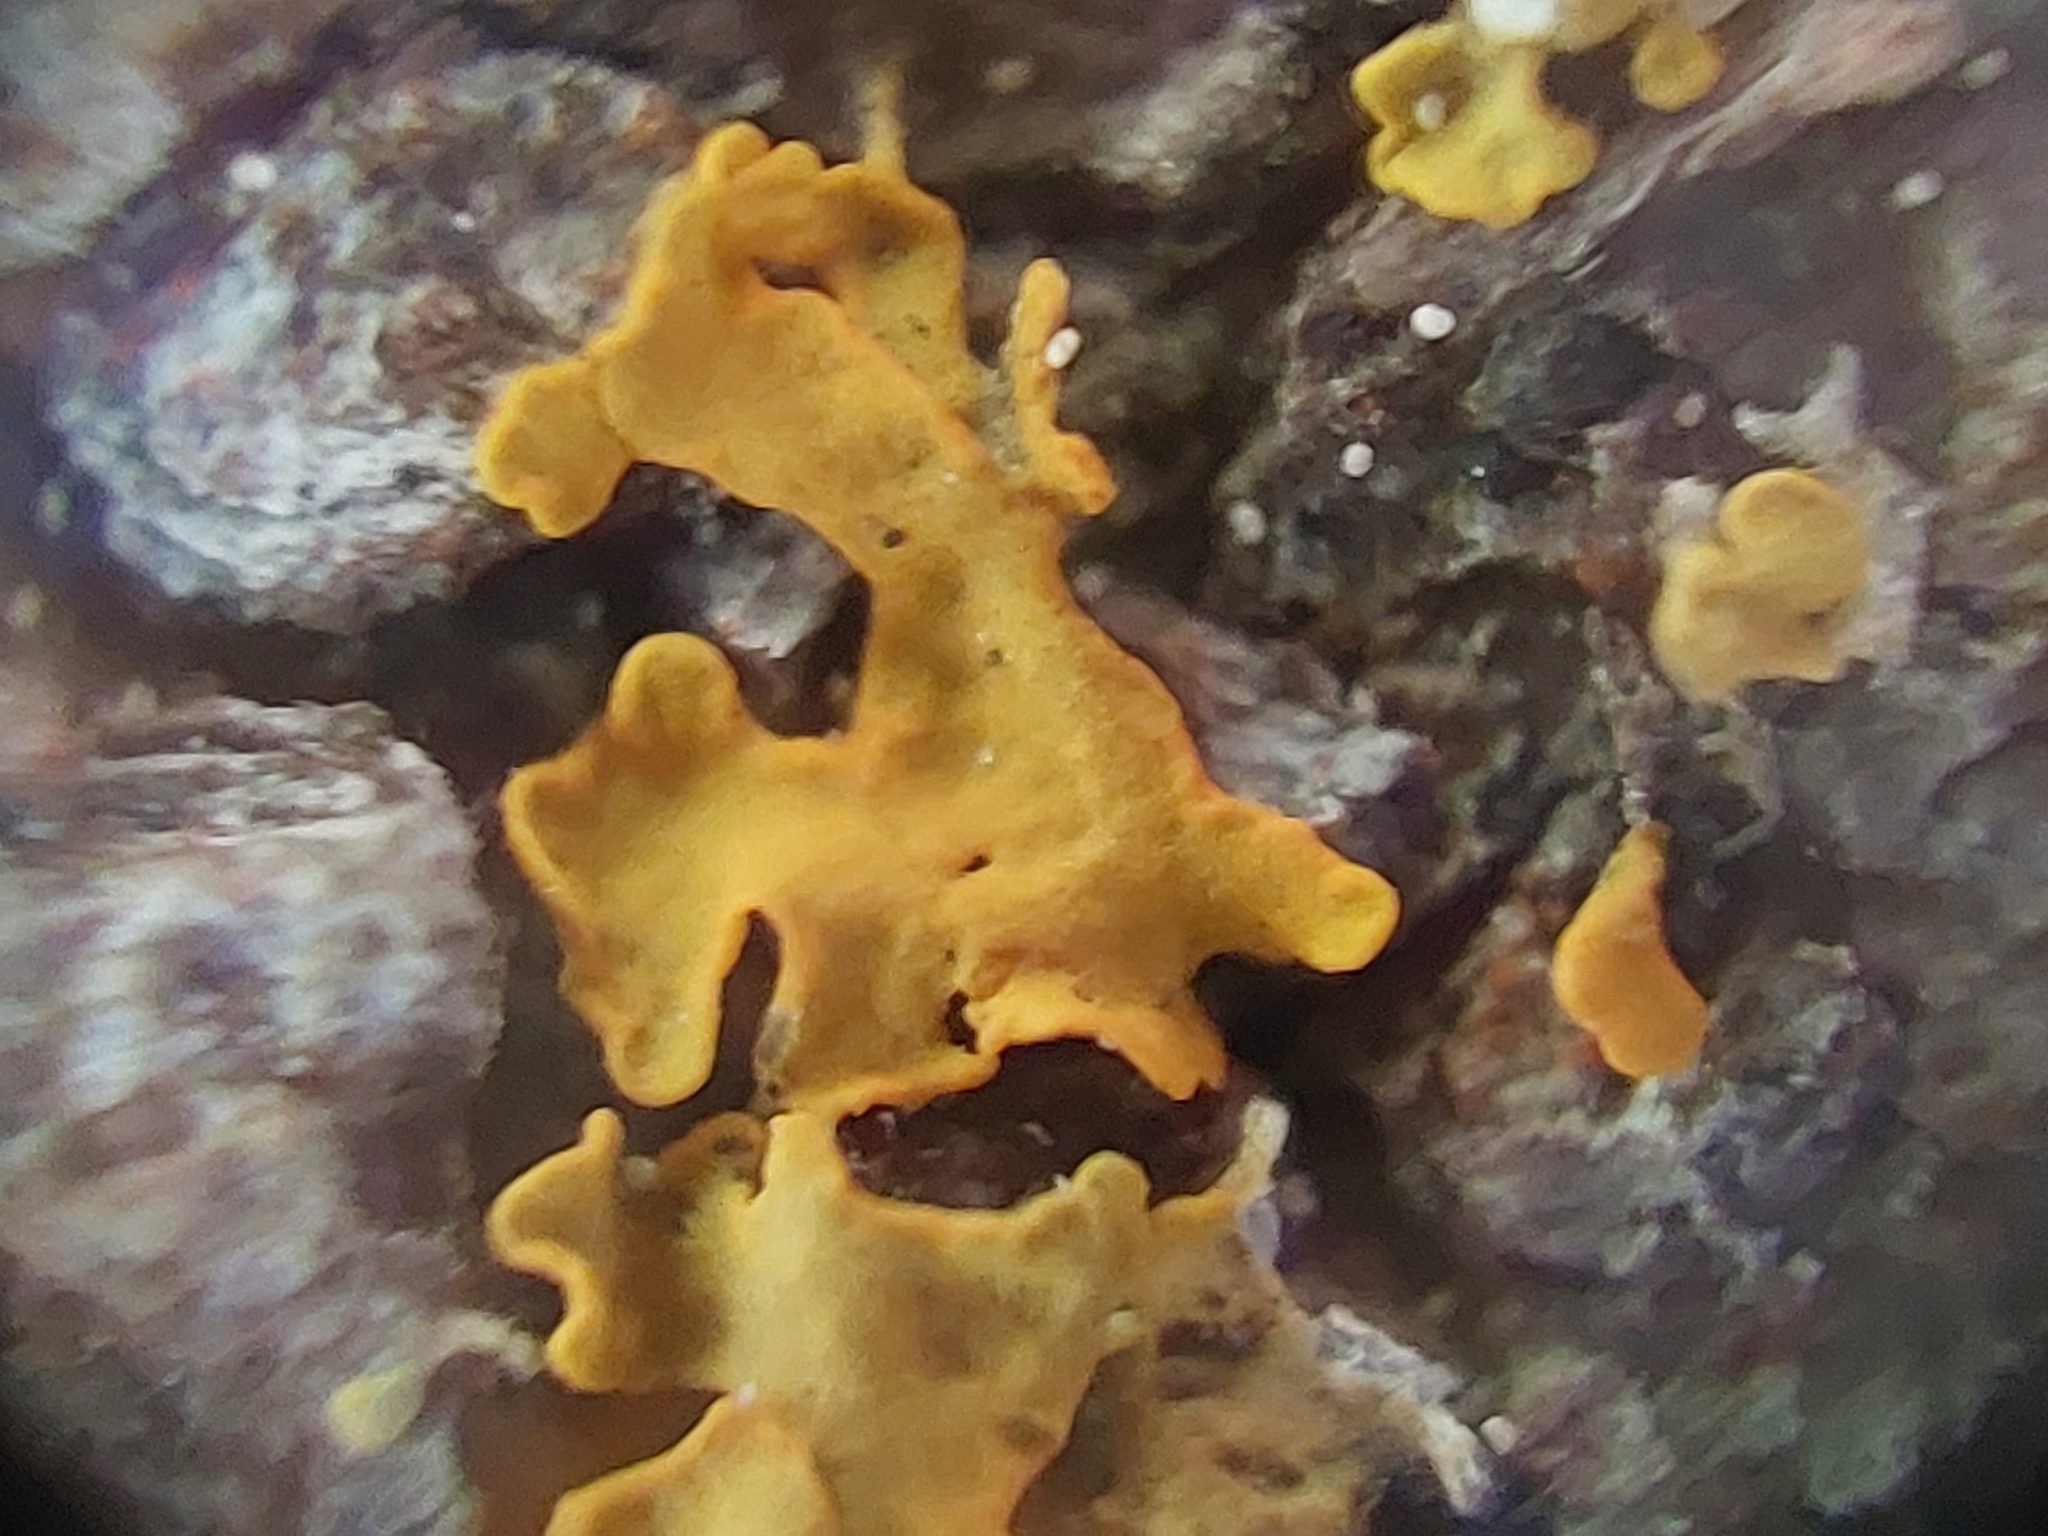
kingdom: Fungi
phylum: Ascomycota
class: Lecanoromycetes
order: Teloschistales
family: Teloschistaceae
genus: Xanthoria
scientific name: Xanthoria parietina
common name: Common orange lichen
